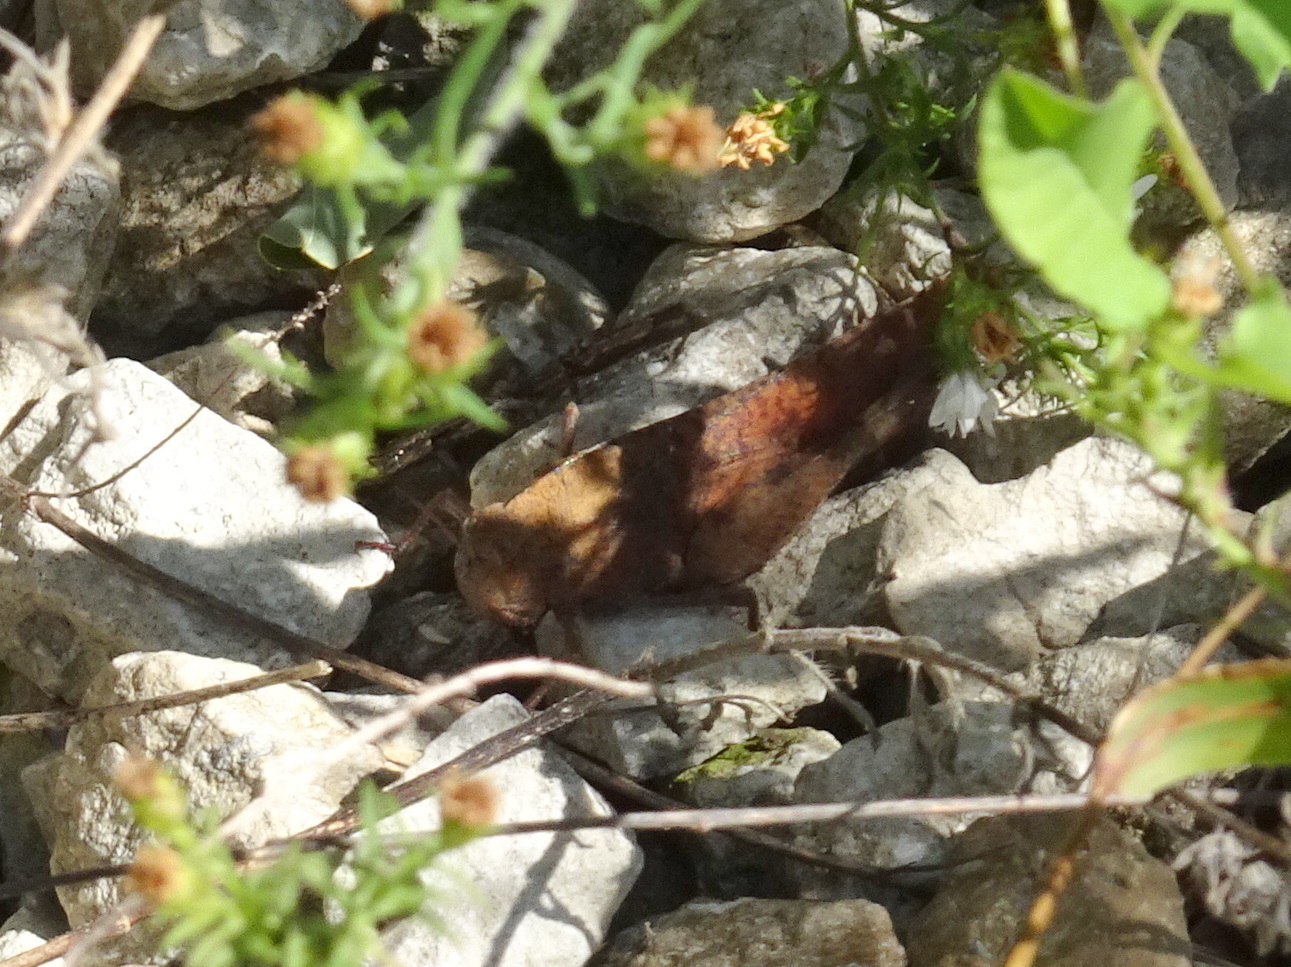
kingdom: Animalia
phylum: Arthropoda
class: Insecta
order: Orthoptera
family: Acrididae
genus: Arphia
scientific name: Arphia xanthoptera
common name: Autumn yellow-winged grasshopper
